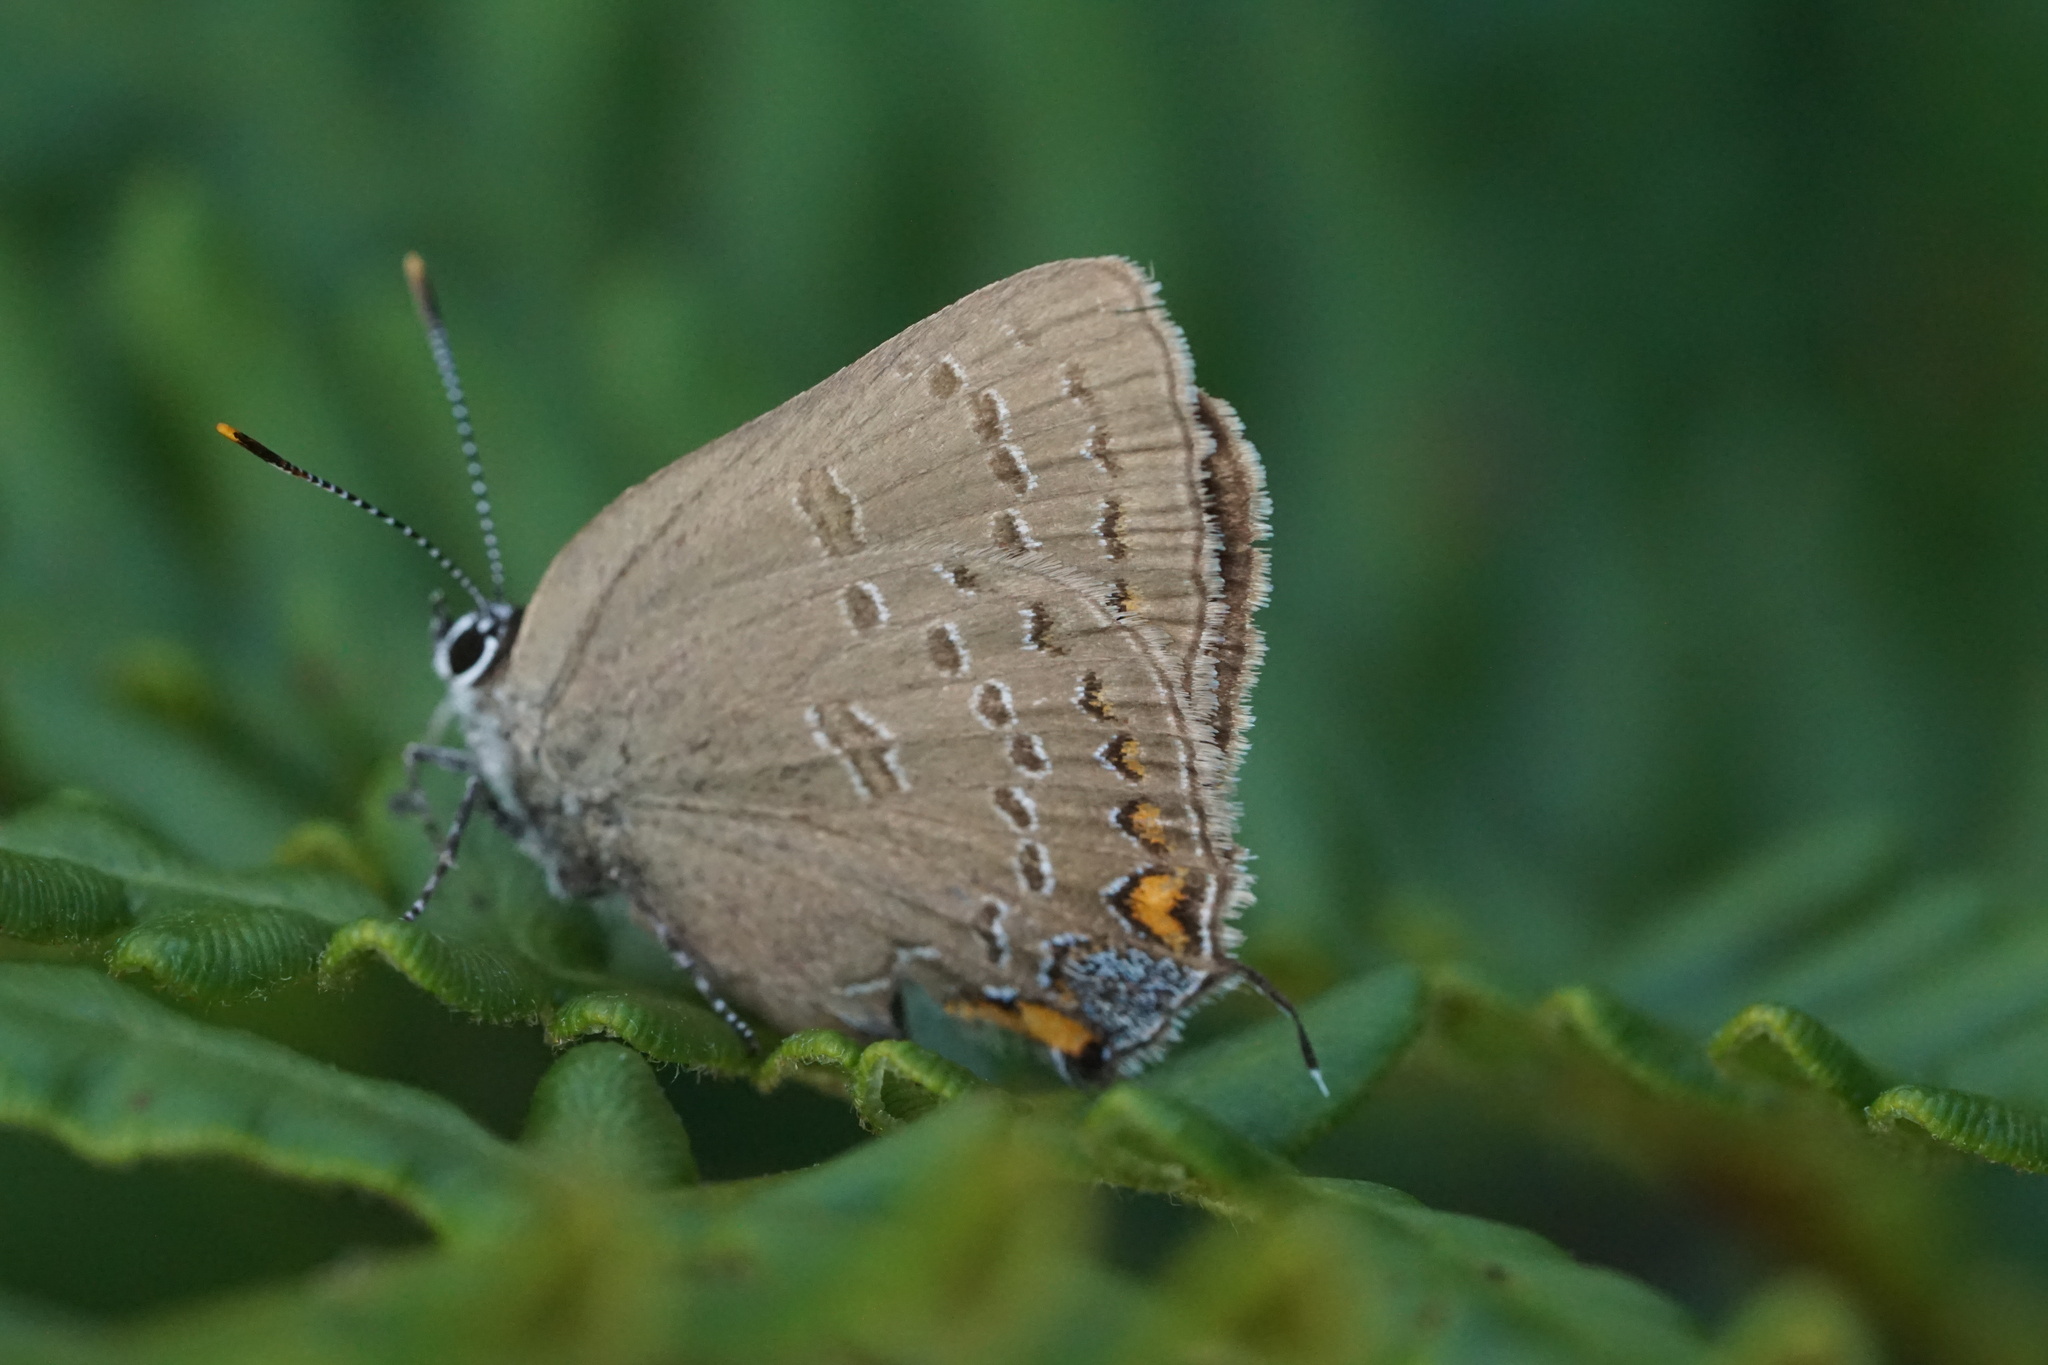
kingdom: Animalia
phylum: Arthropoda
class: Insecta
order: Lepidoptera
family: Lycaenidae
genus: Satyrium
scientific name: Satyrium edwardsii
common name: Edwards' hairstreak
